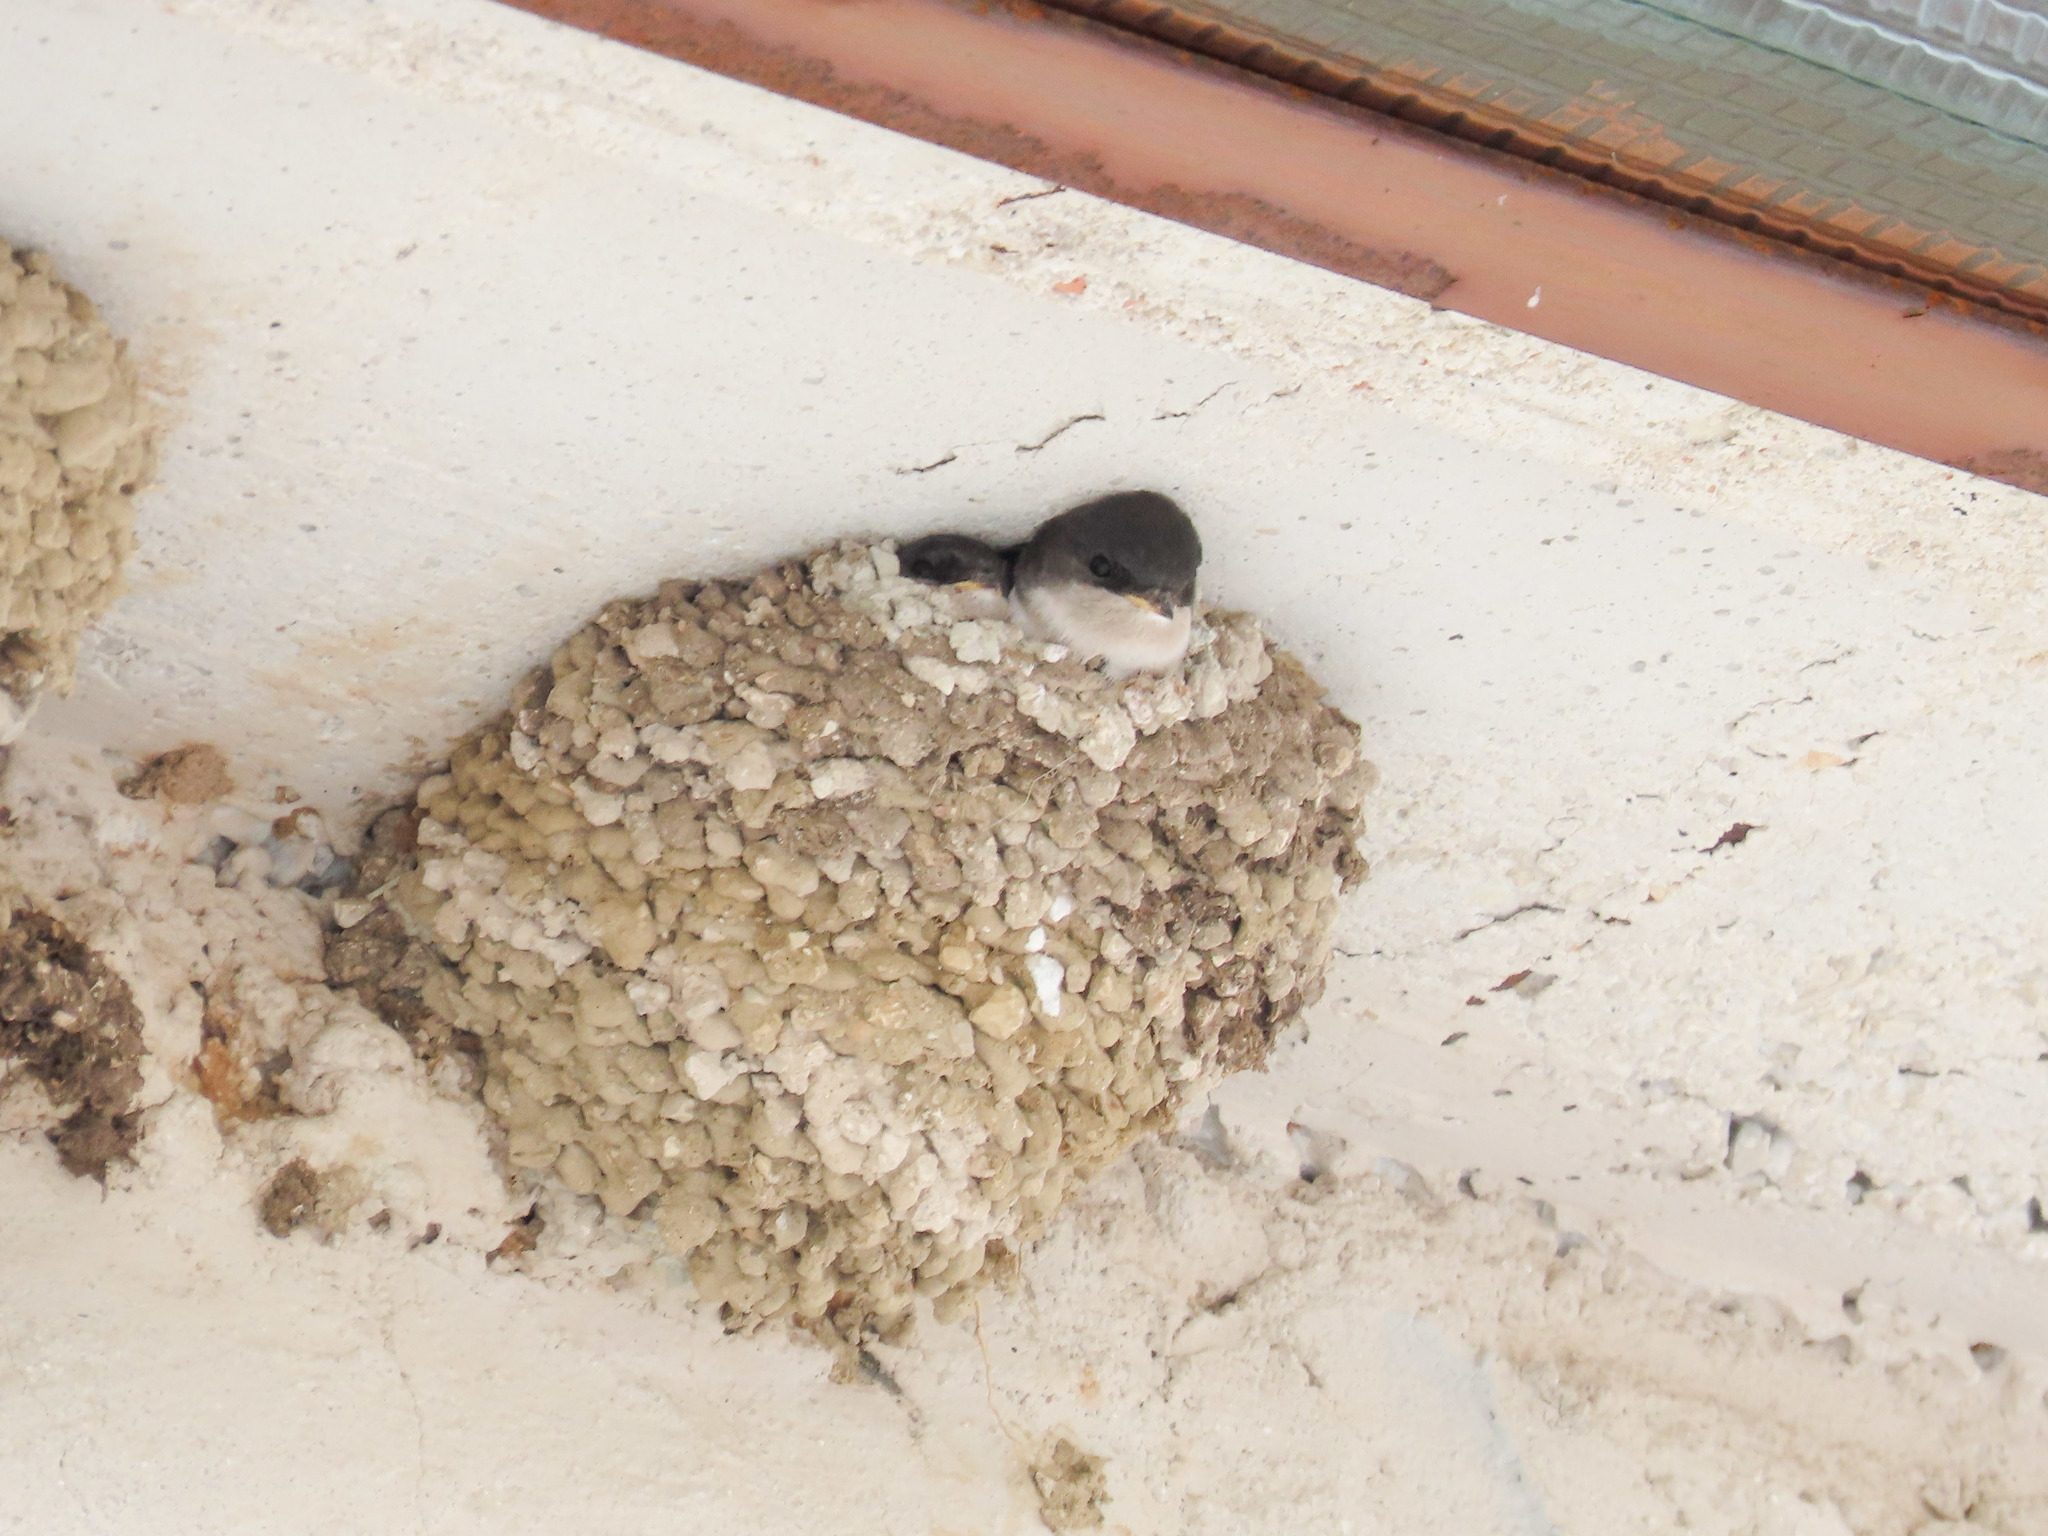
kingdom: Animalia
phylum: Chordata
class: Aves
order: Passeriformes
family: Hirundinidae
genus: Delichon
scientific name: Delichon urbicum
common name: Common house martin
